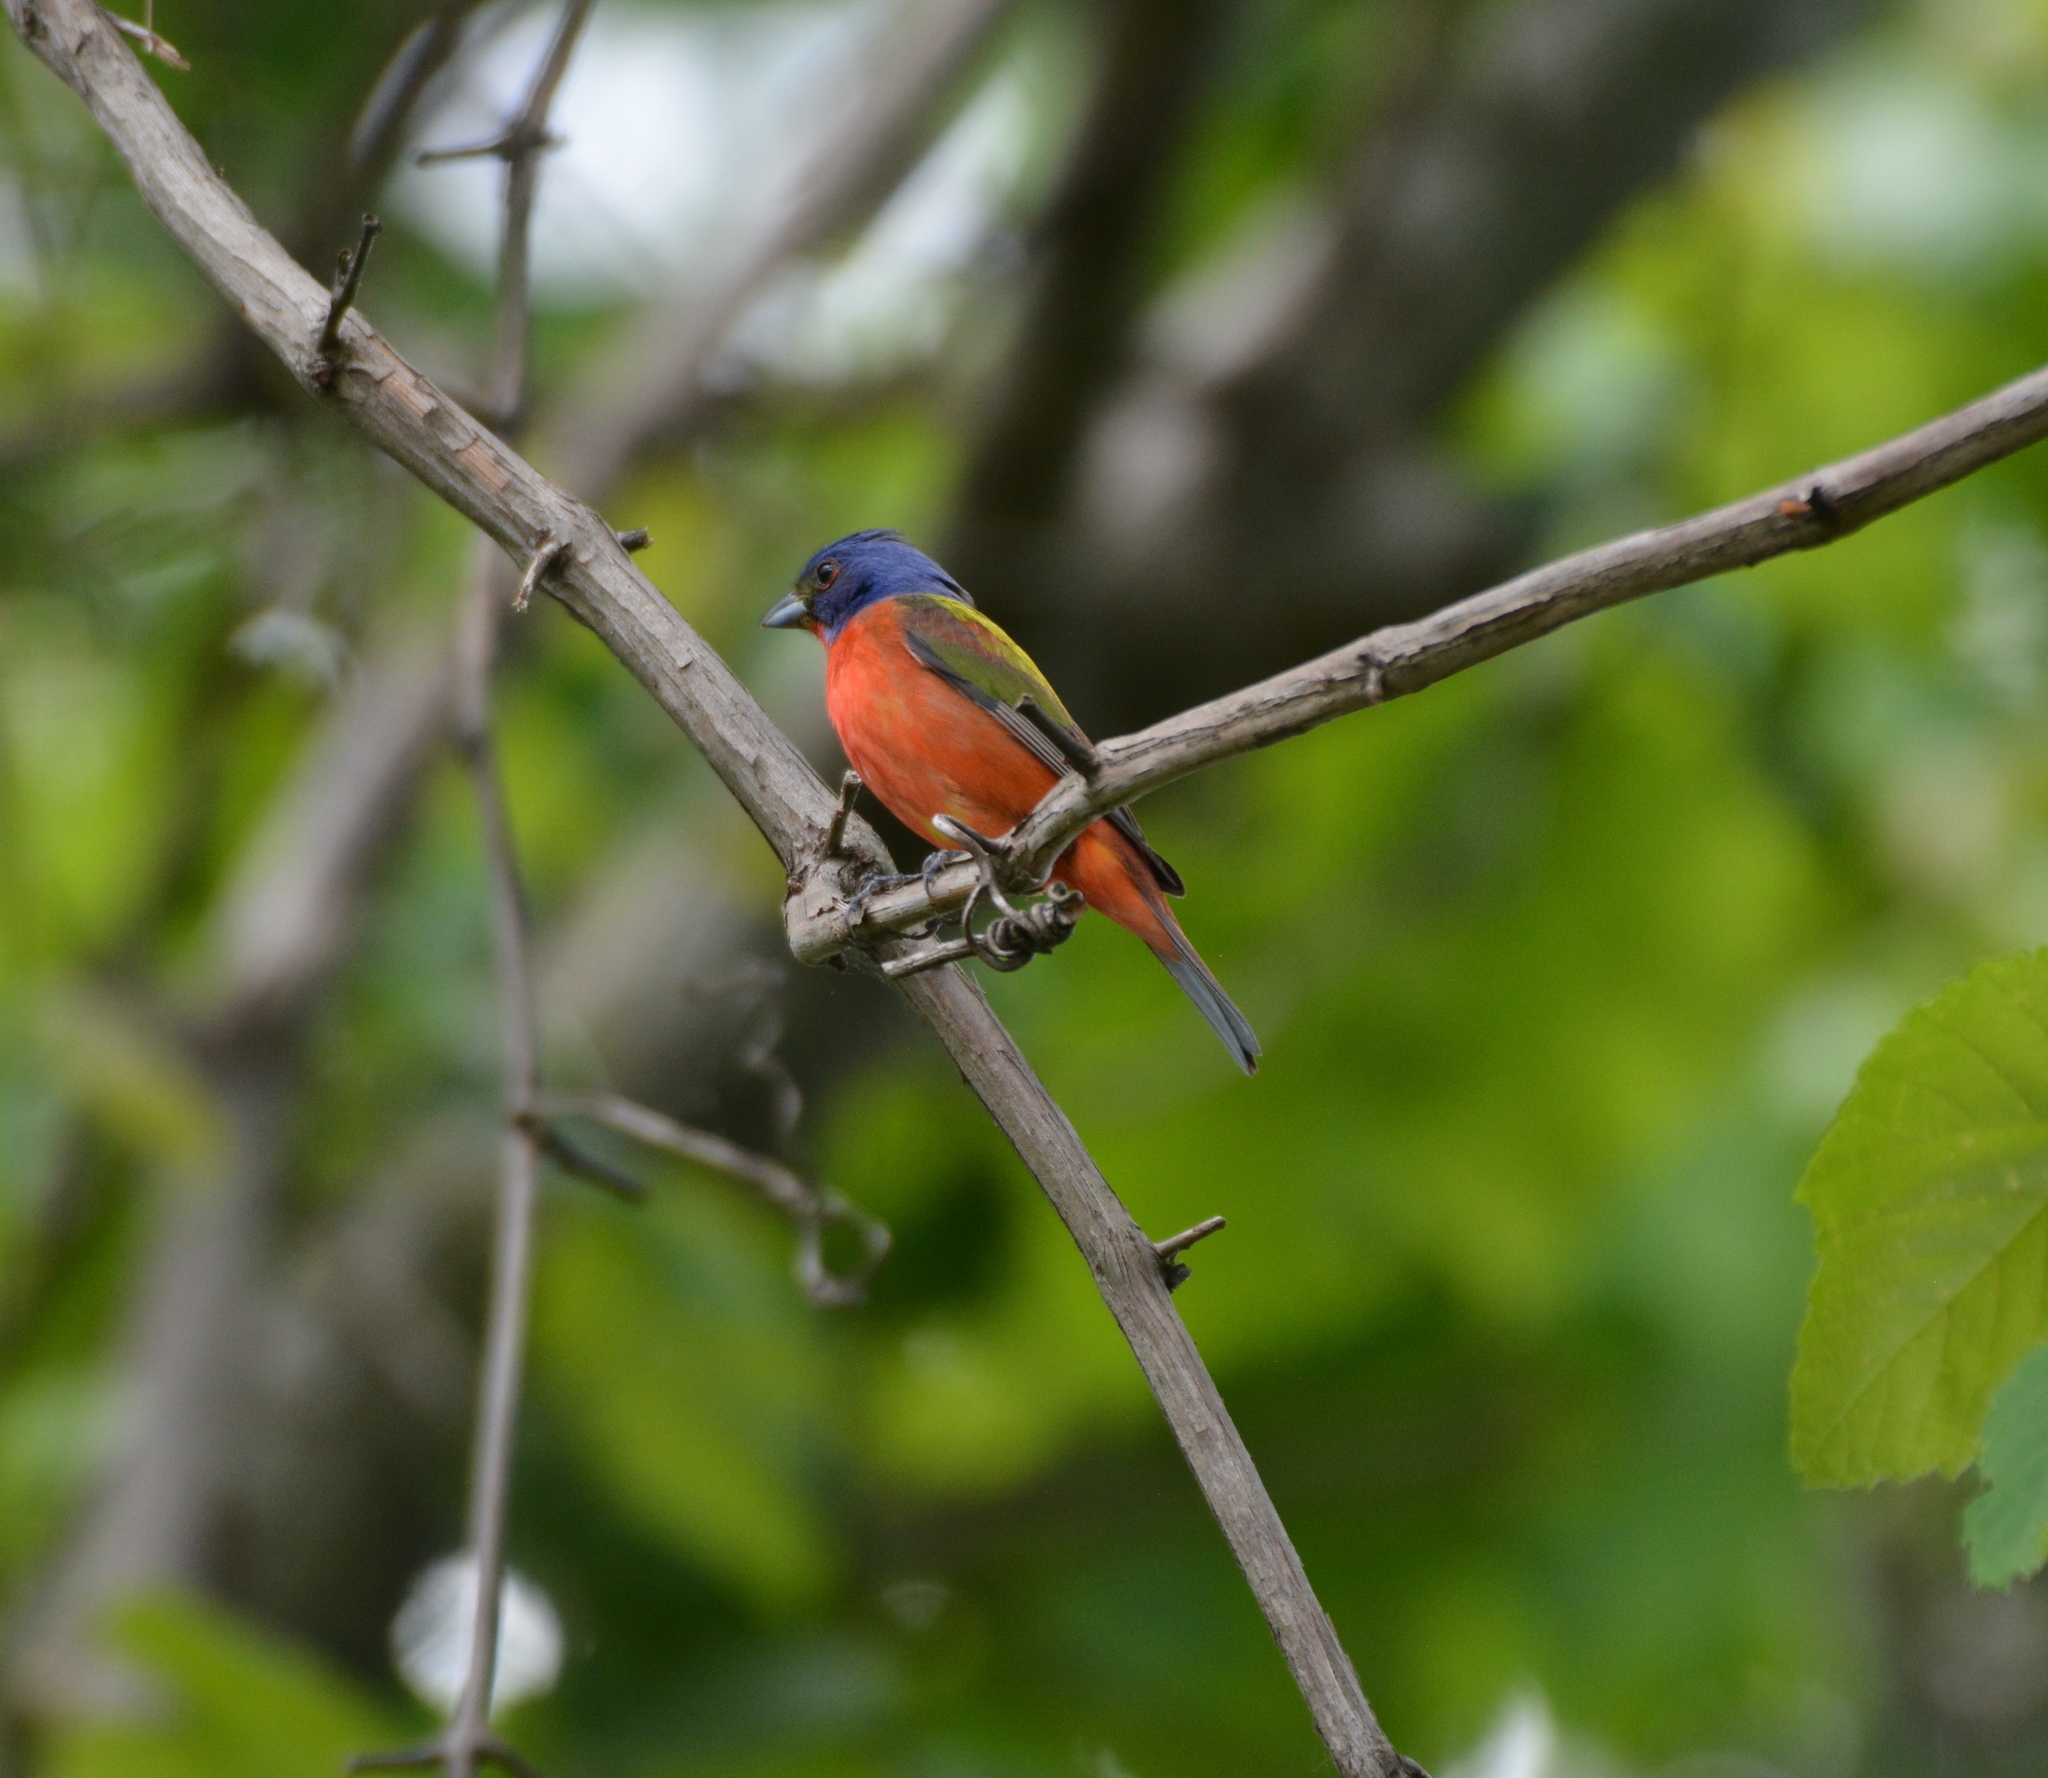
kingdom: Animalia
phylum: Chordata
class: Aves
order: Passeriformes
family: Cardinalidae
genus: Passerina
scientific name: Passerina ciris
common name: Painted bunting
